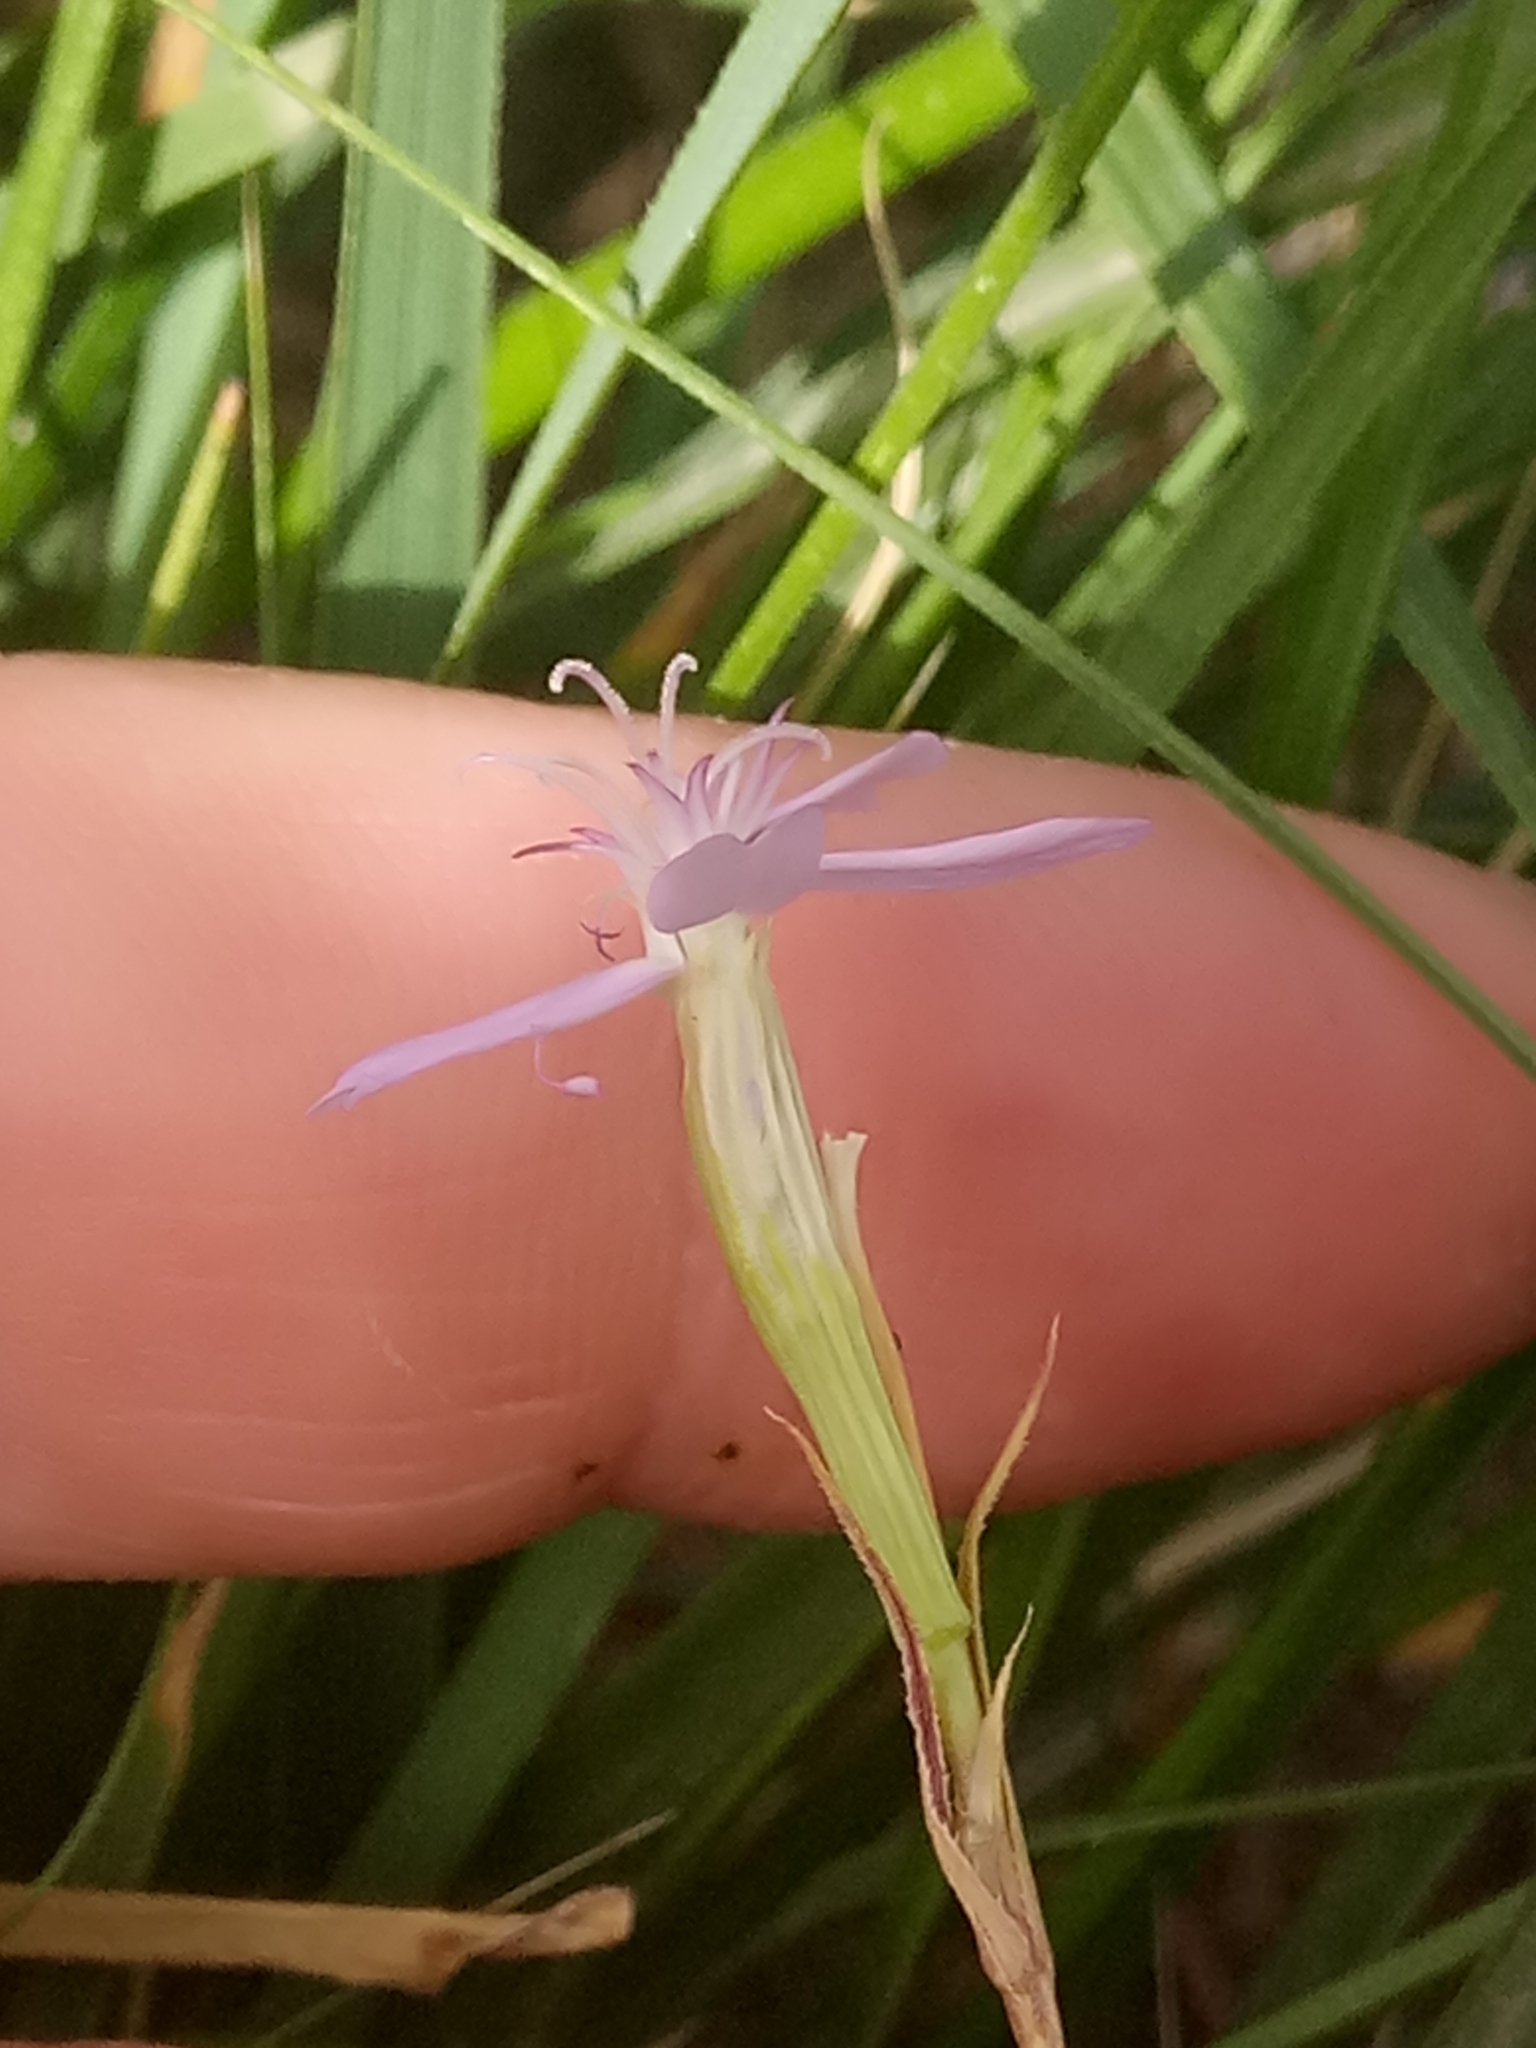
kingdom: Plantae
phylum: Tracheophyta
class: Magnoliopsida
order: Caryophyllales
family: Caryophyllaceae
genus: Eudianthe
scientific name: Eudianthe coeli-rosa
